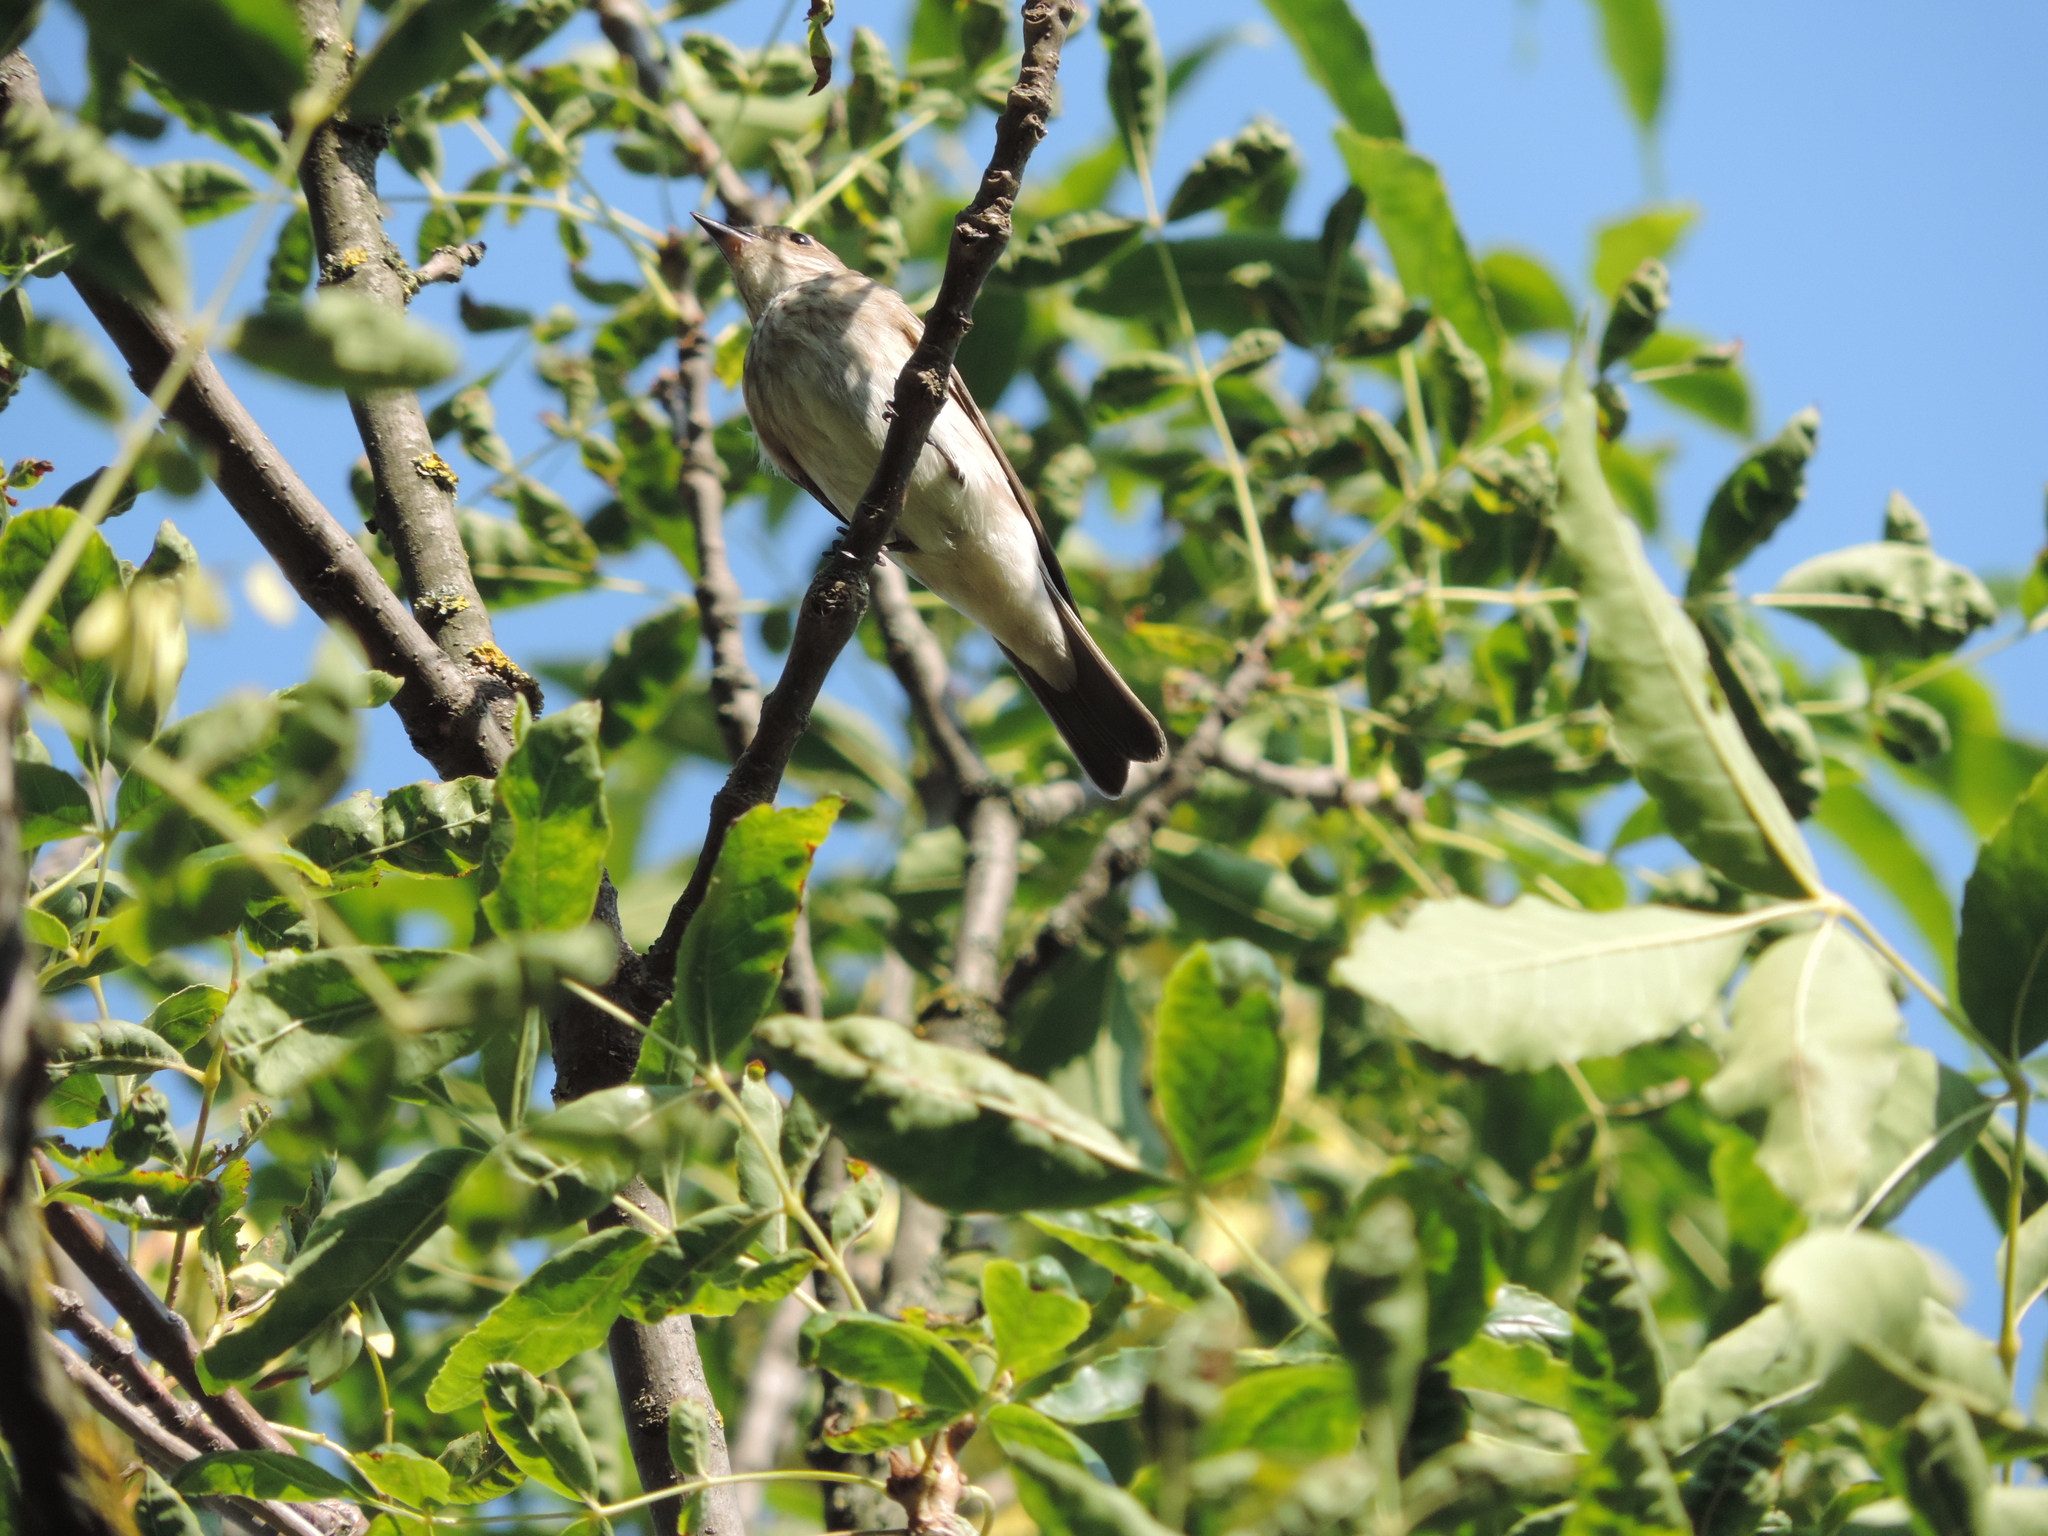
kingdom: Animalia
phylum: Chordata
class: Aves
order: Passeriformes
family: Muscicapidae
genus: Muscicapa
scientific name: Muscicapa striata
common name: Spotted flycatcher
